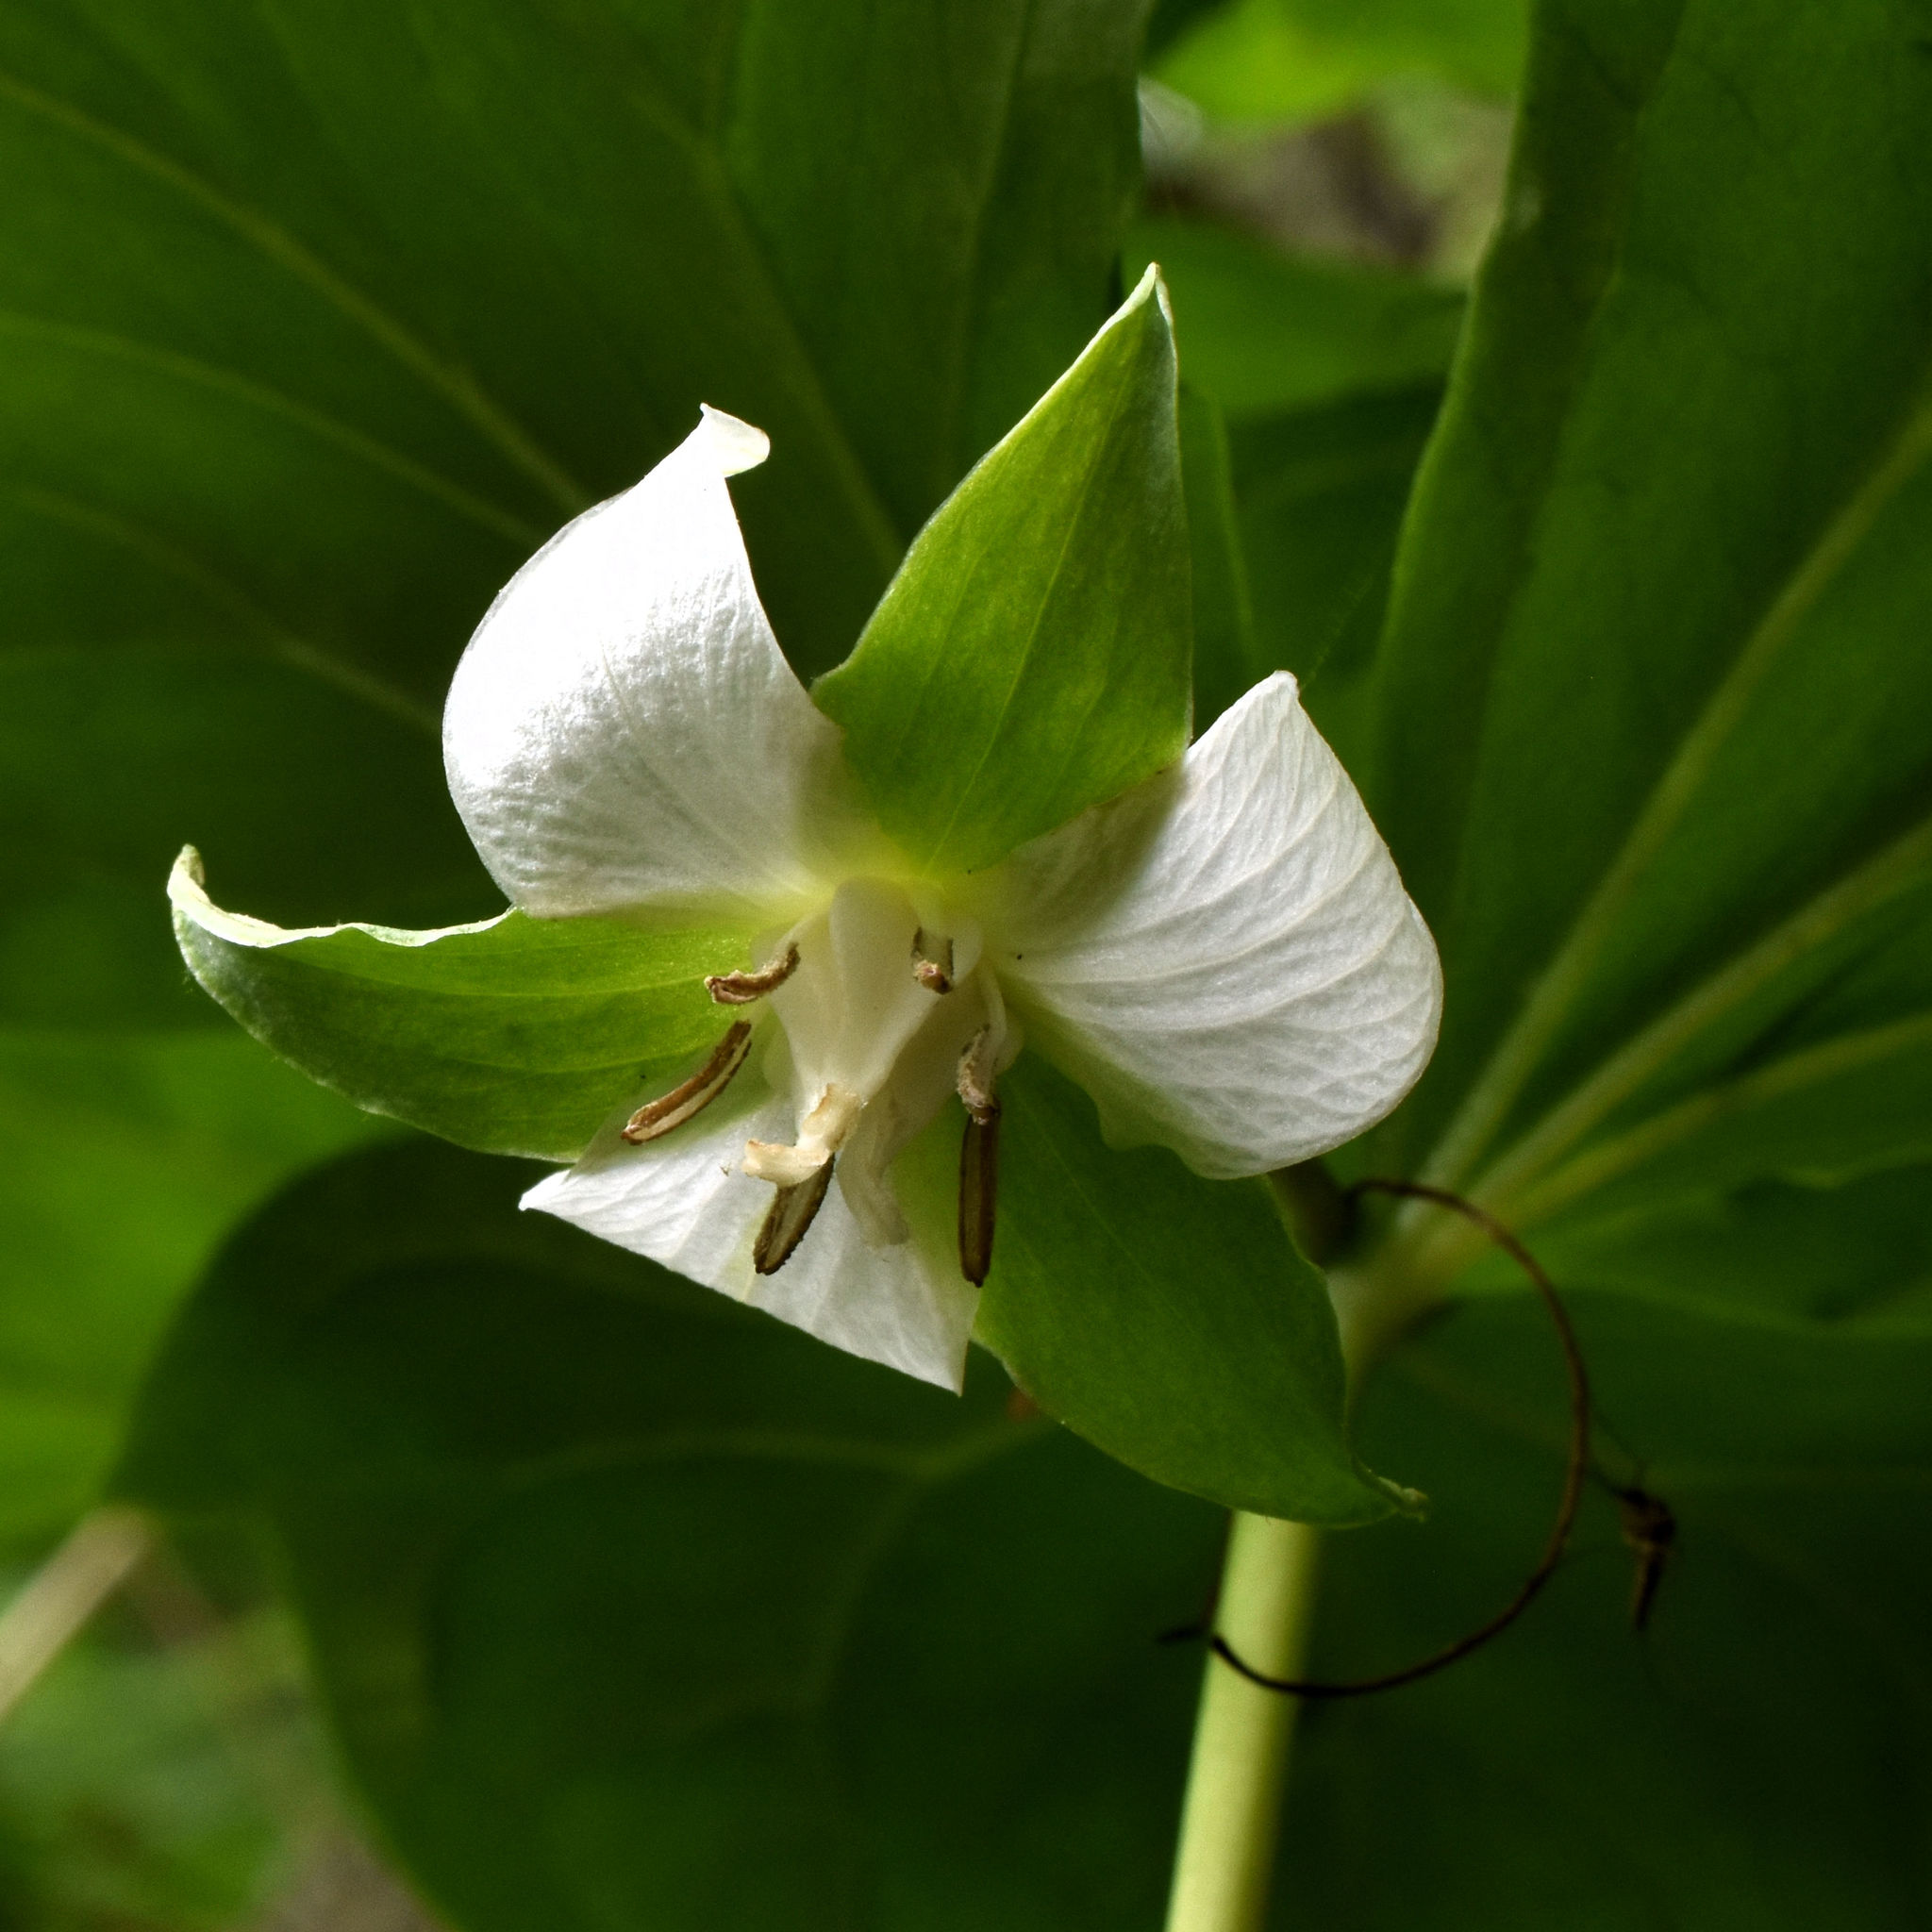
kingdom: Plantae
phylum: Tracheophyta
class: Liliopsida
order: Liliales
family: Melanthiaceae
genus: Trillium
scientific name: Trillium cernuum
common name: Nodding trillium
